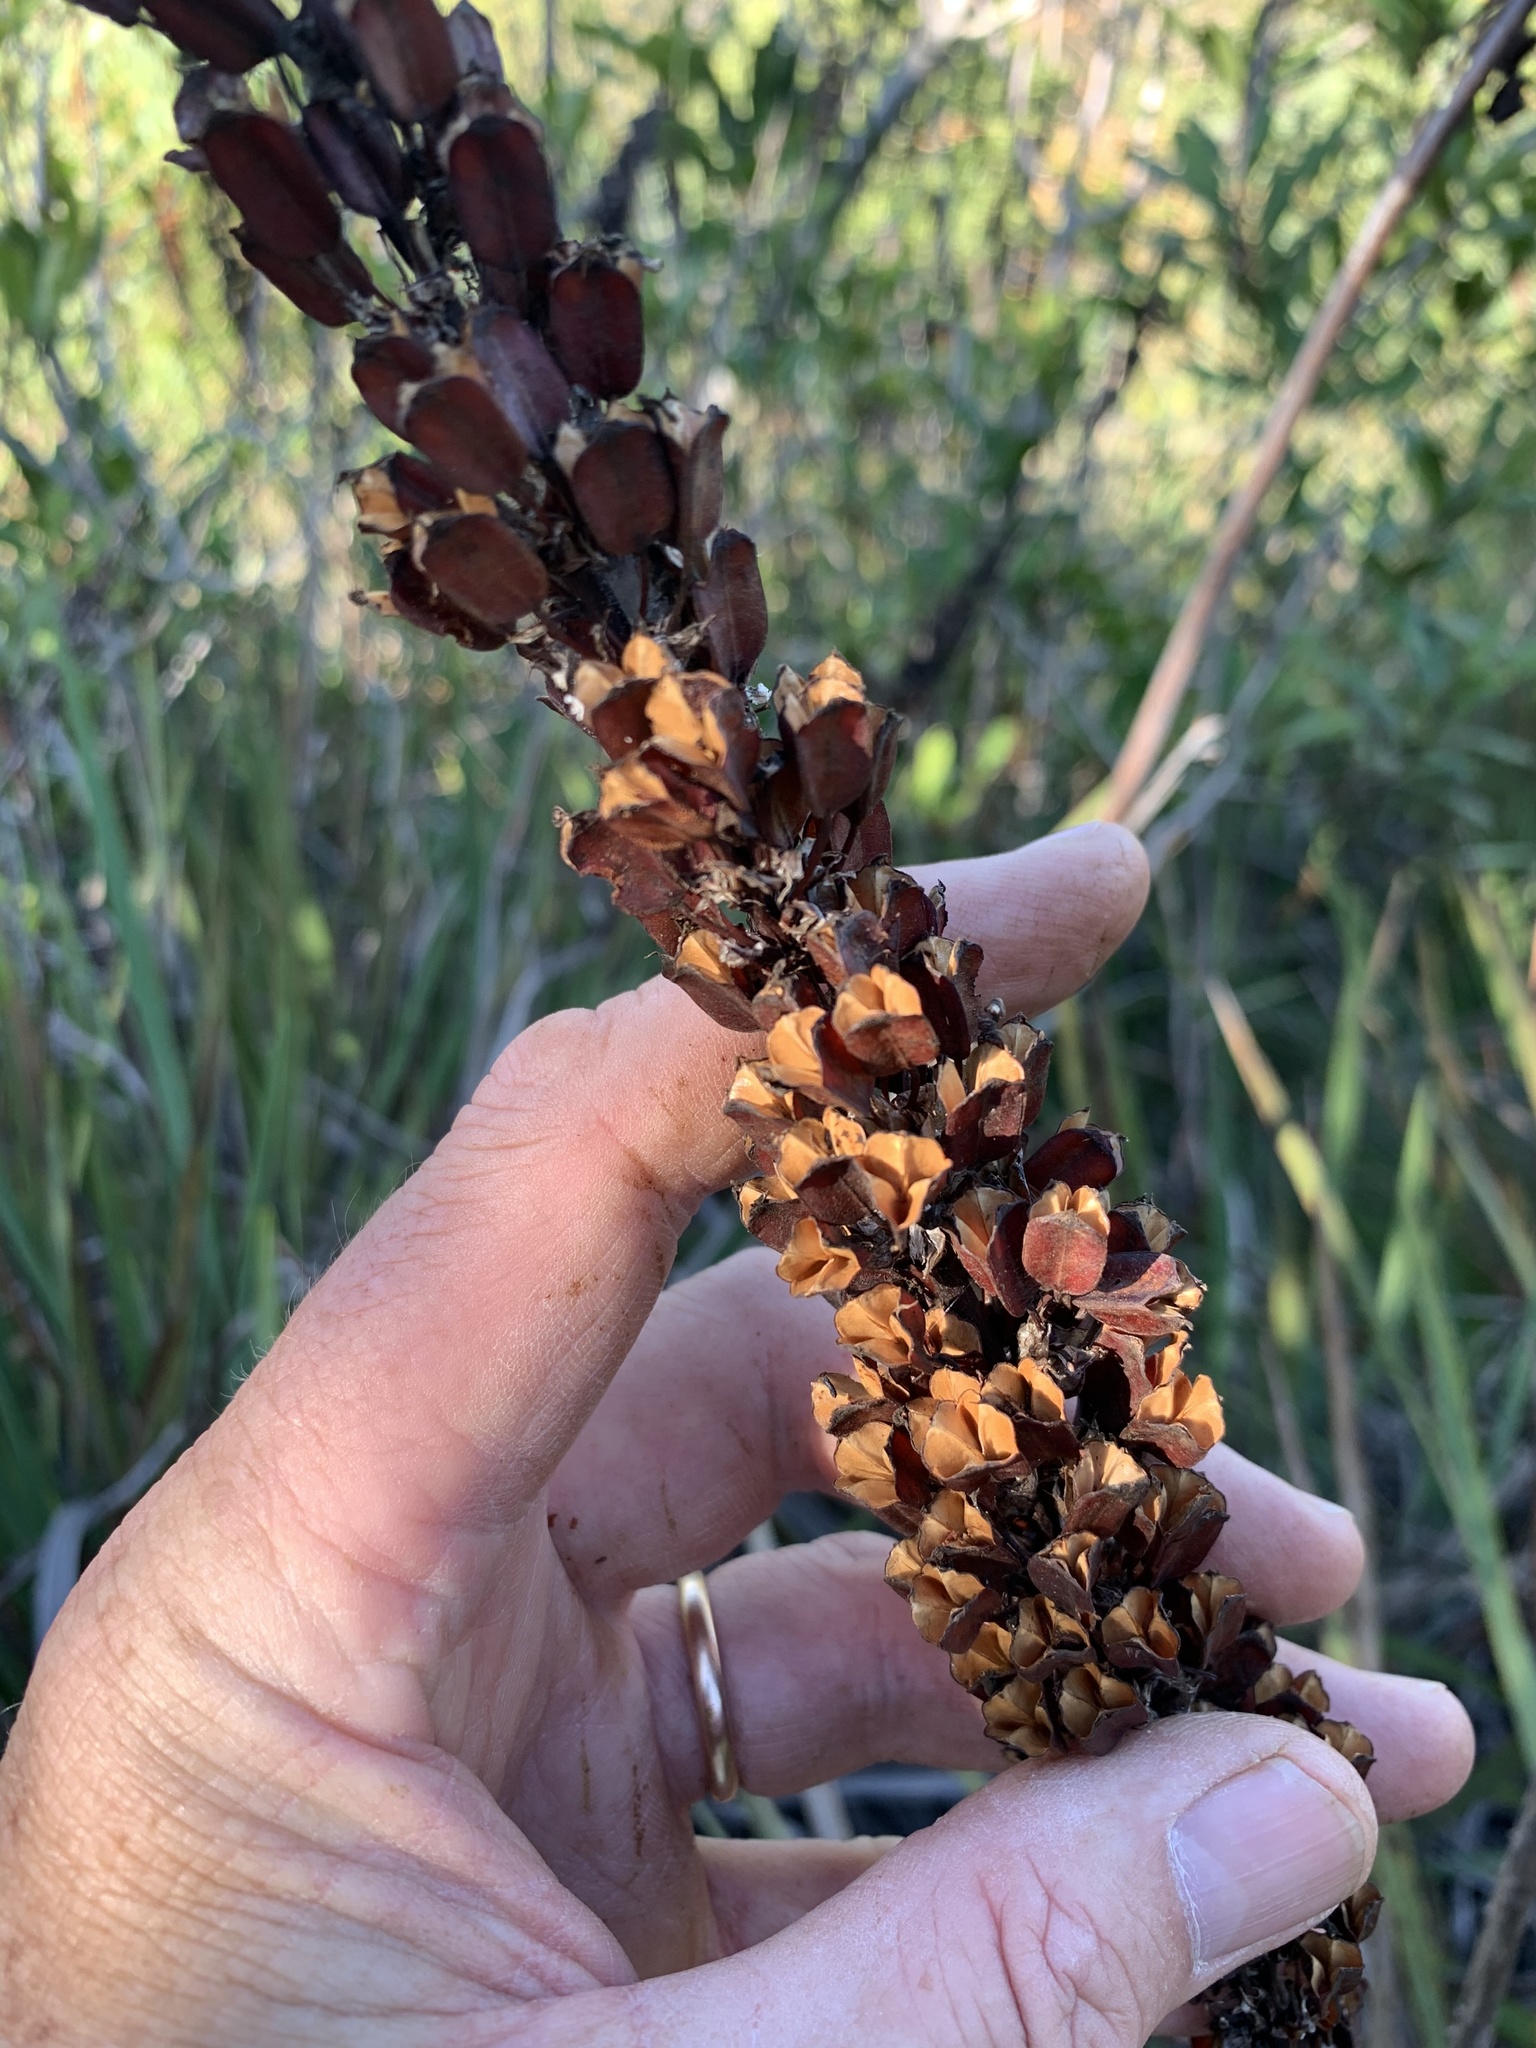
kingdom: Plantae
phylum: Tracheophyta
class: Liliopsida
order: Asparagales
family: Iridaceae
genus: Aristea
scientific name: Aristea capitata
